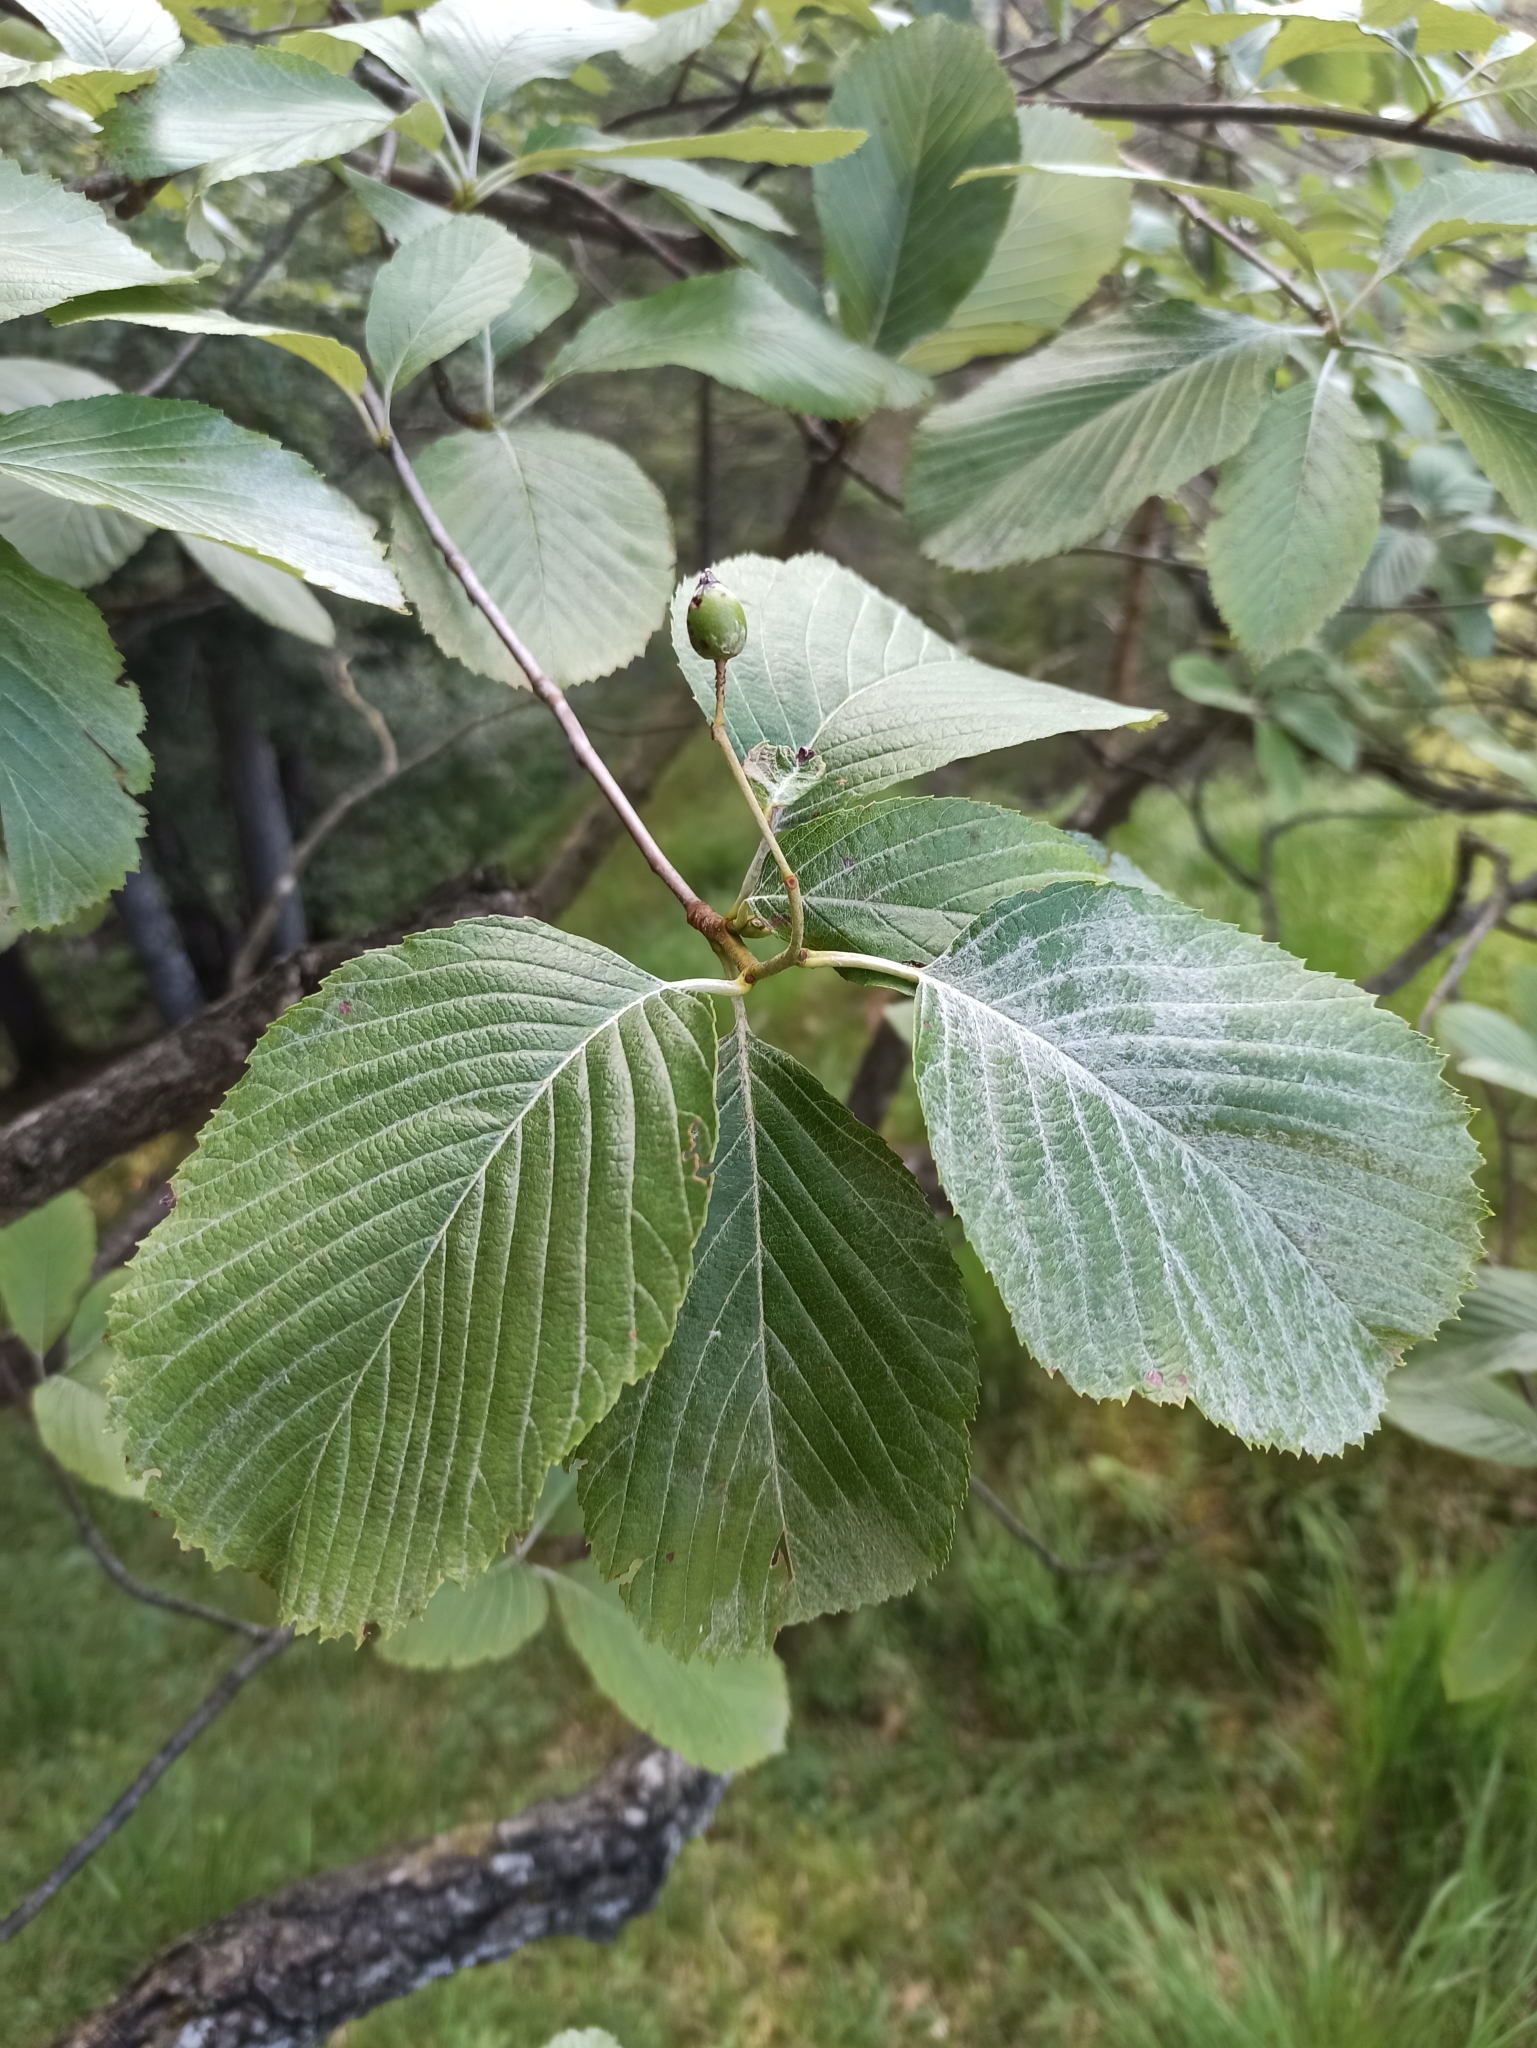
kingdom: Plantae
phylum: Tracheophyta
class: Magnoliopsida
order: Rosales
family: Rosaceae
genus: Aria
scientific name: Aria edulis
